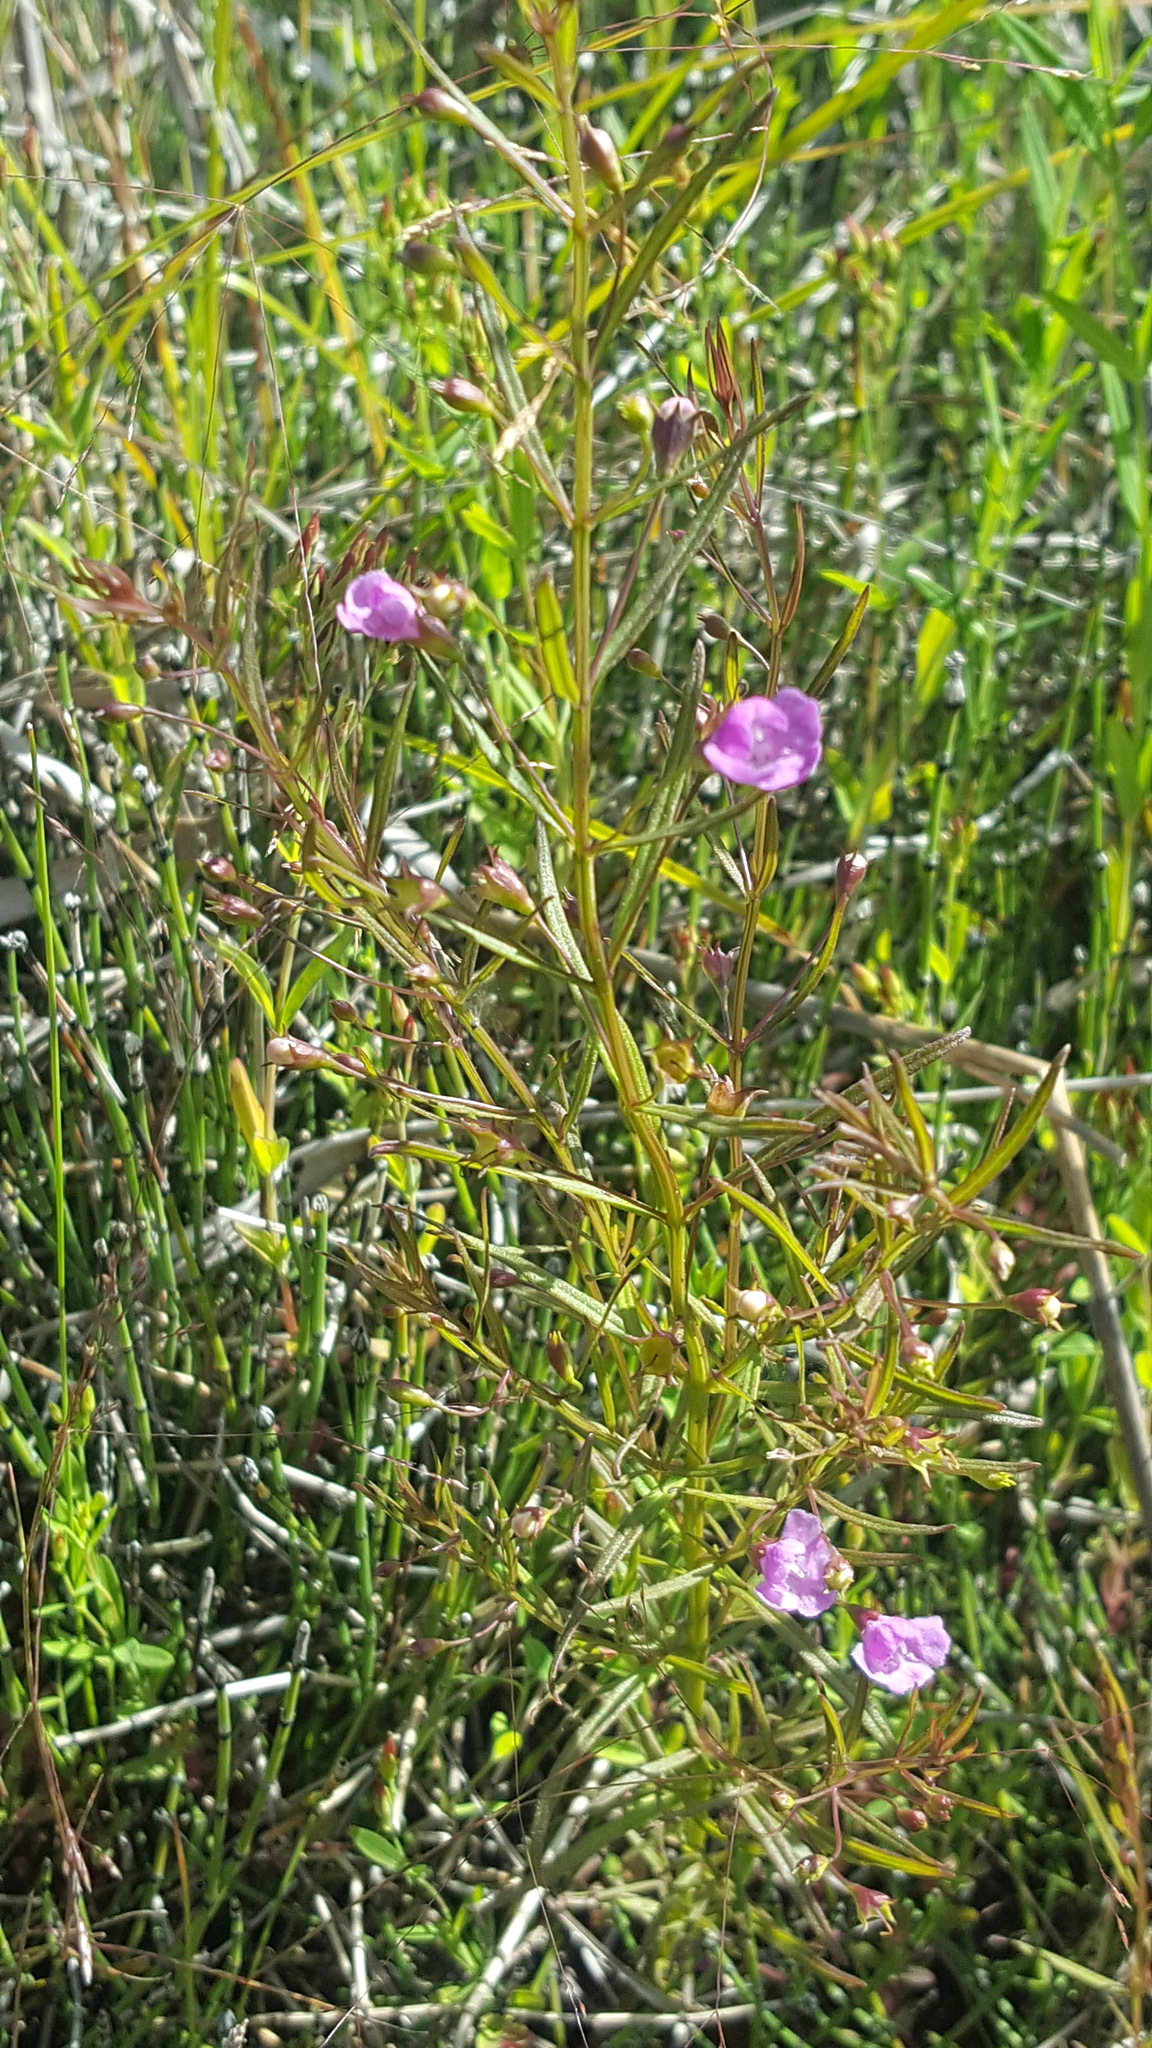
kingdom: Plantae
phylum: Tracheophyta
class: Magnoliopsida
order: Lamiales
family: Orobanchaceae
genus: Agalinis
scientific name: Agalinis tenuifolia
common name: Slender agalinis
